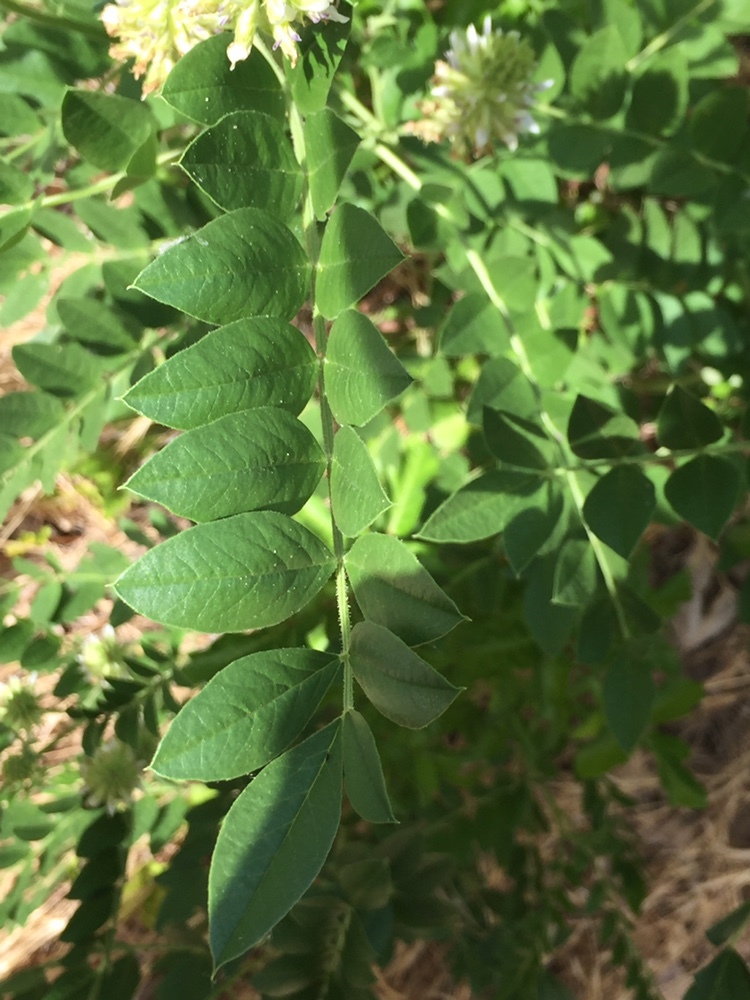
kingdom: Plantae
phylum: Tracheophyta
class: Magnoliopsida
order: Fabales
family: Fabaceae
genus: Glycyrrhiza
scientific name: Glycyrrhiza lepidota
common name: American liquorice
